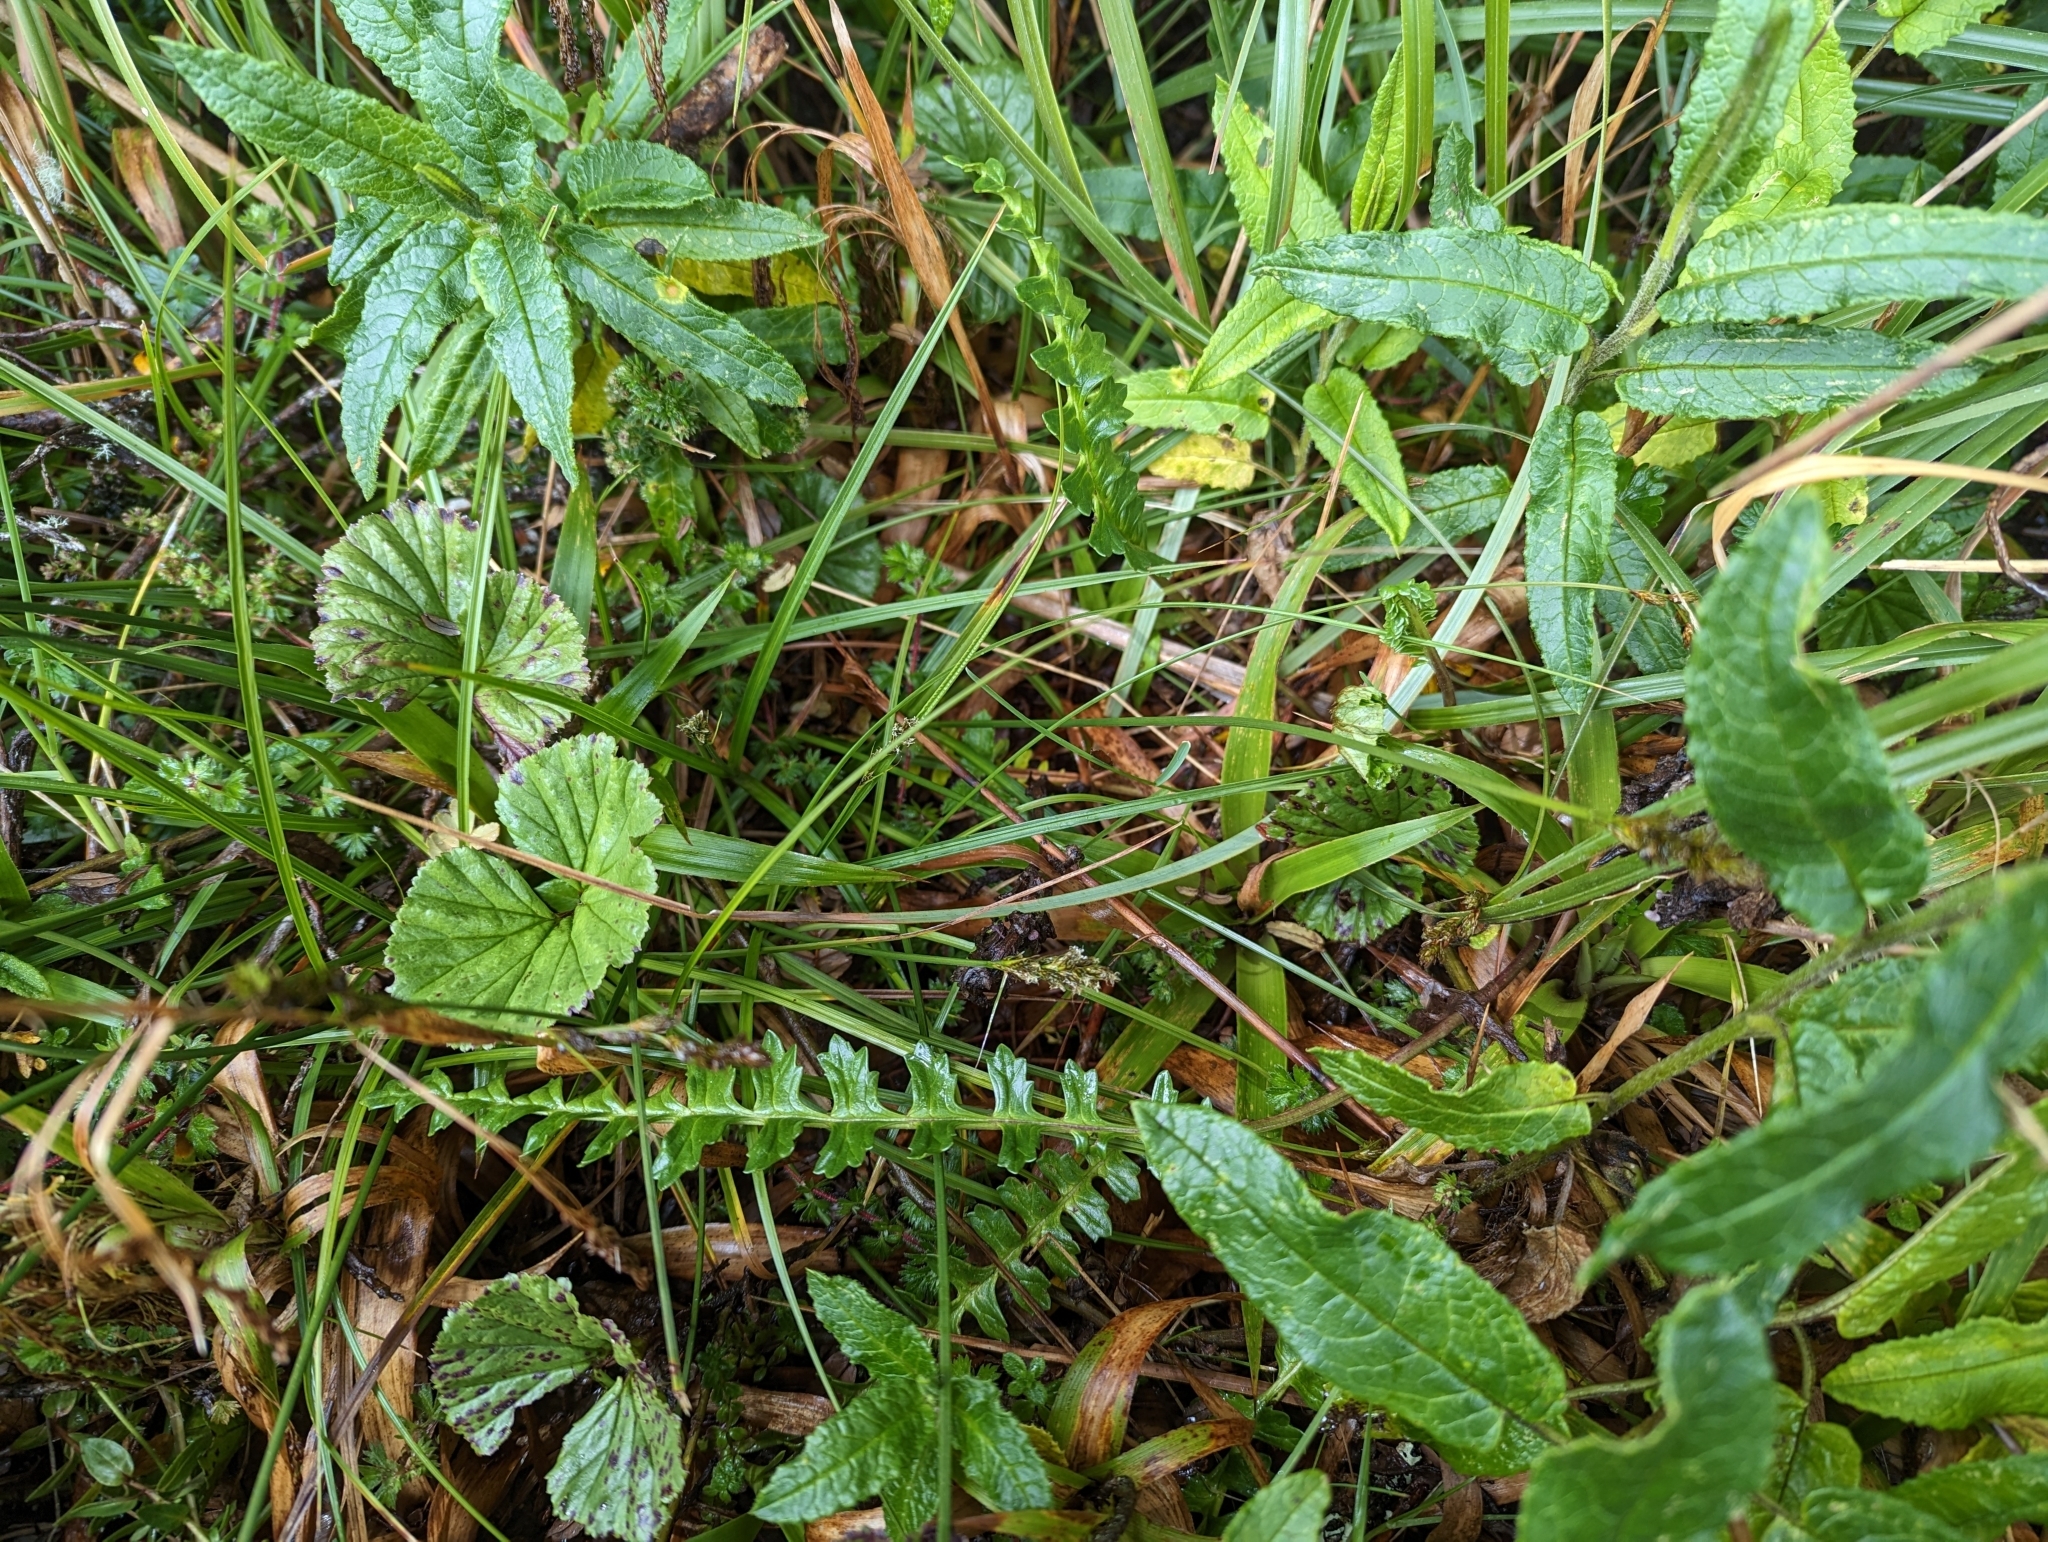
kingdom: Plantae
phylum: Tracheophyta
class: Magnoliopsida
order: Asterales
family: Asteraceae
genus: Dorobaea
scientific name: Dorobaea pimpinellifolia
